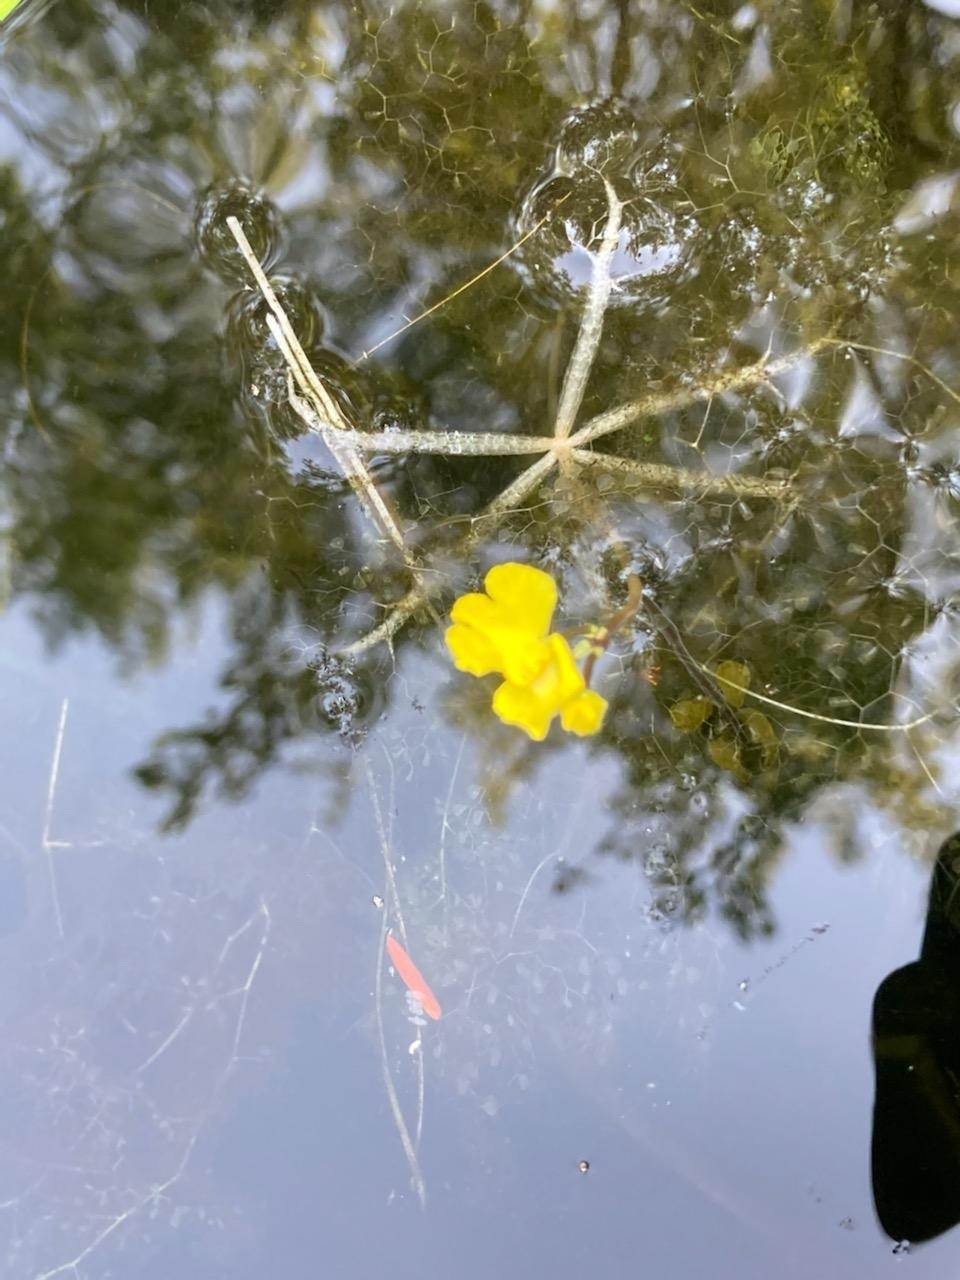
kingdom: Plantae
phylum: Tracheophyta
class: Magnoliopsida
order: Lamiales
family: Lentibulariaceae
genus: Utricularia
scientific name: Utricularia radiata
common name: Floating bladderwort
